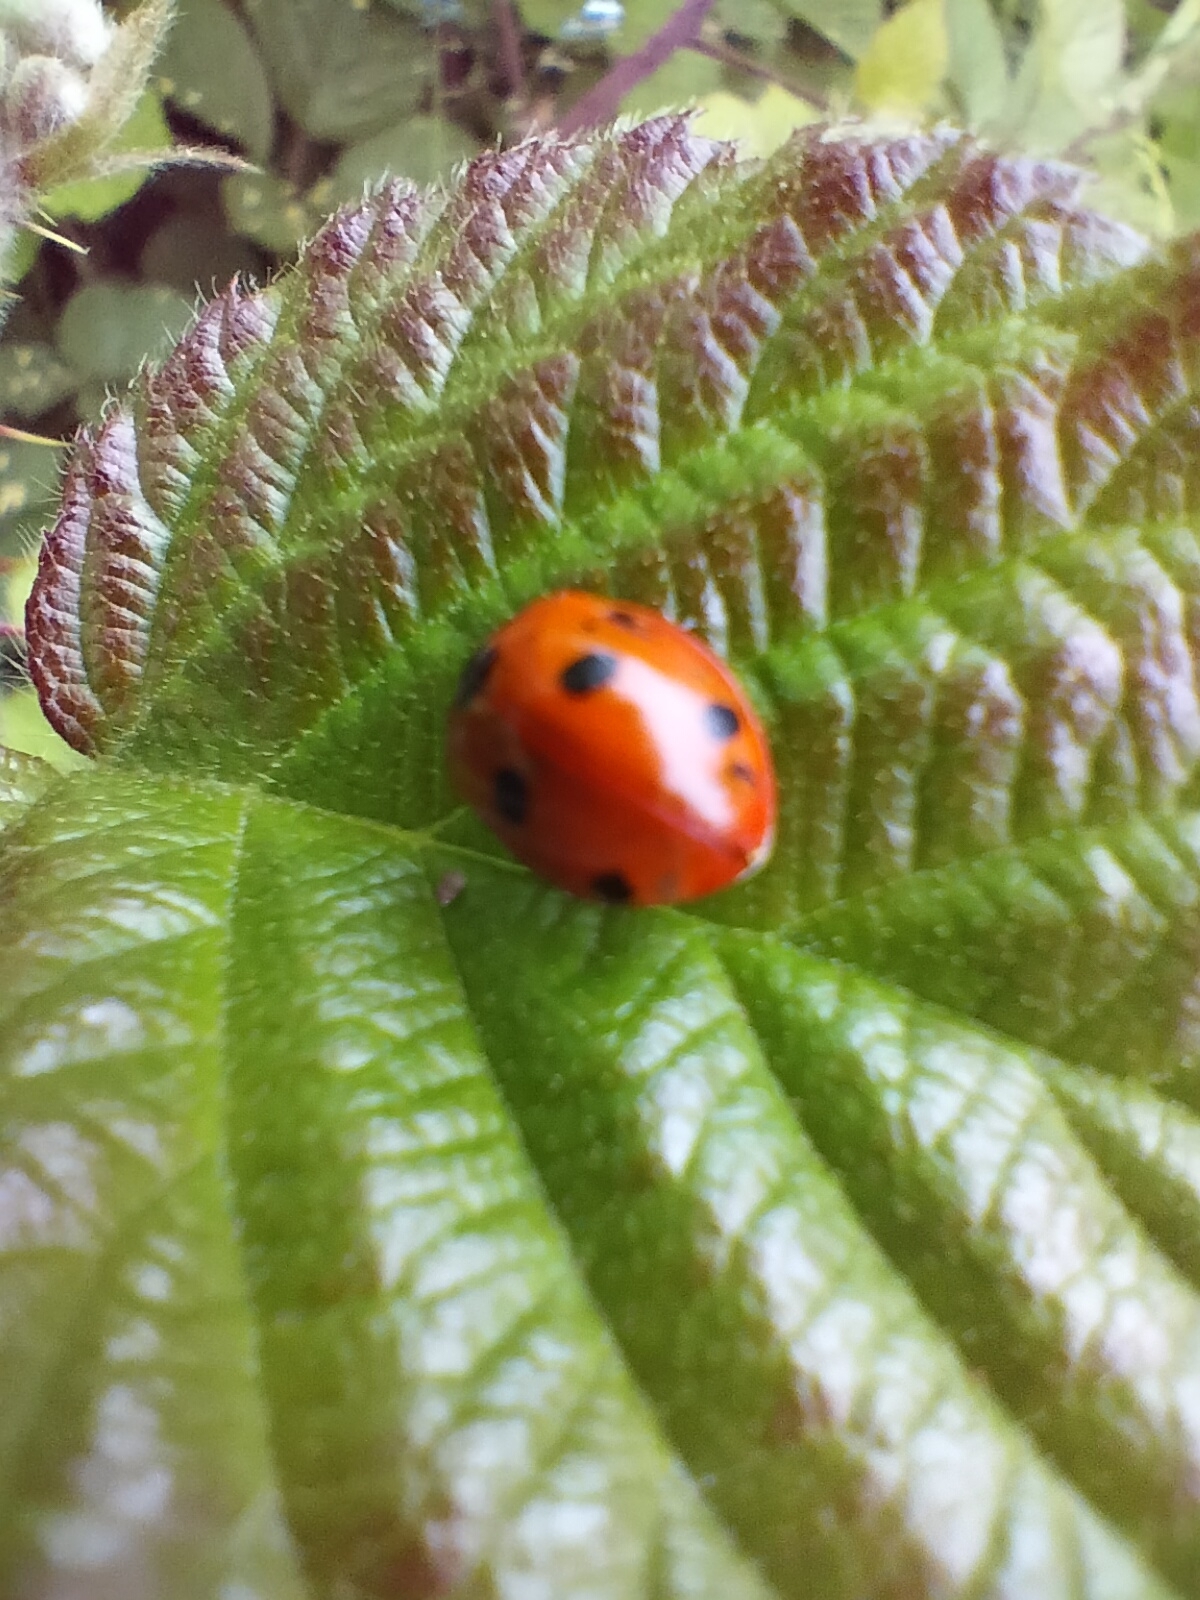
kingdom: Animalia
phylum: Arthropoda
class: Insecta
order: Coleoptera
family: Coccinellidae
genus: Coccinella
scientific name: Coccinella septempunctata
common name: Sevenspotted lady beetle
